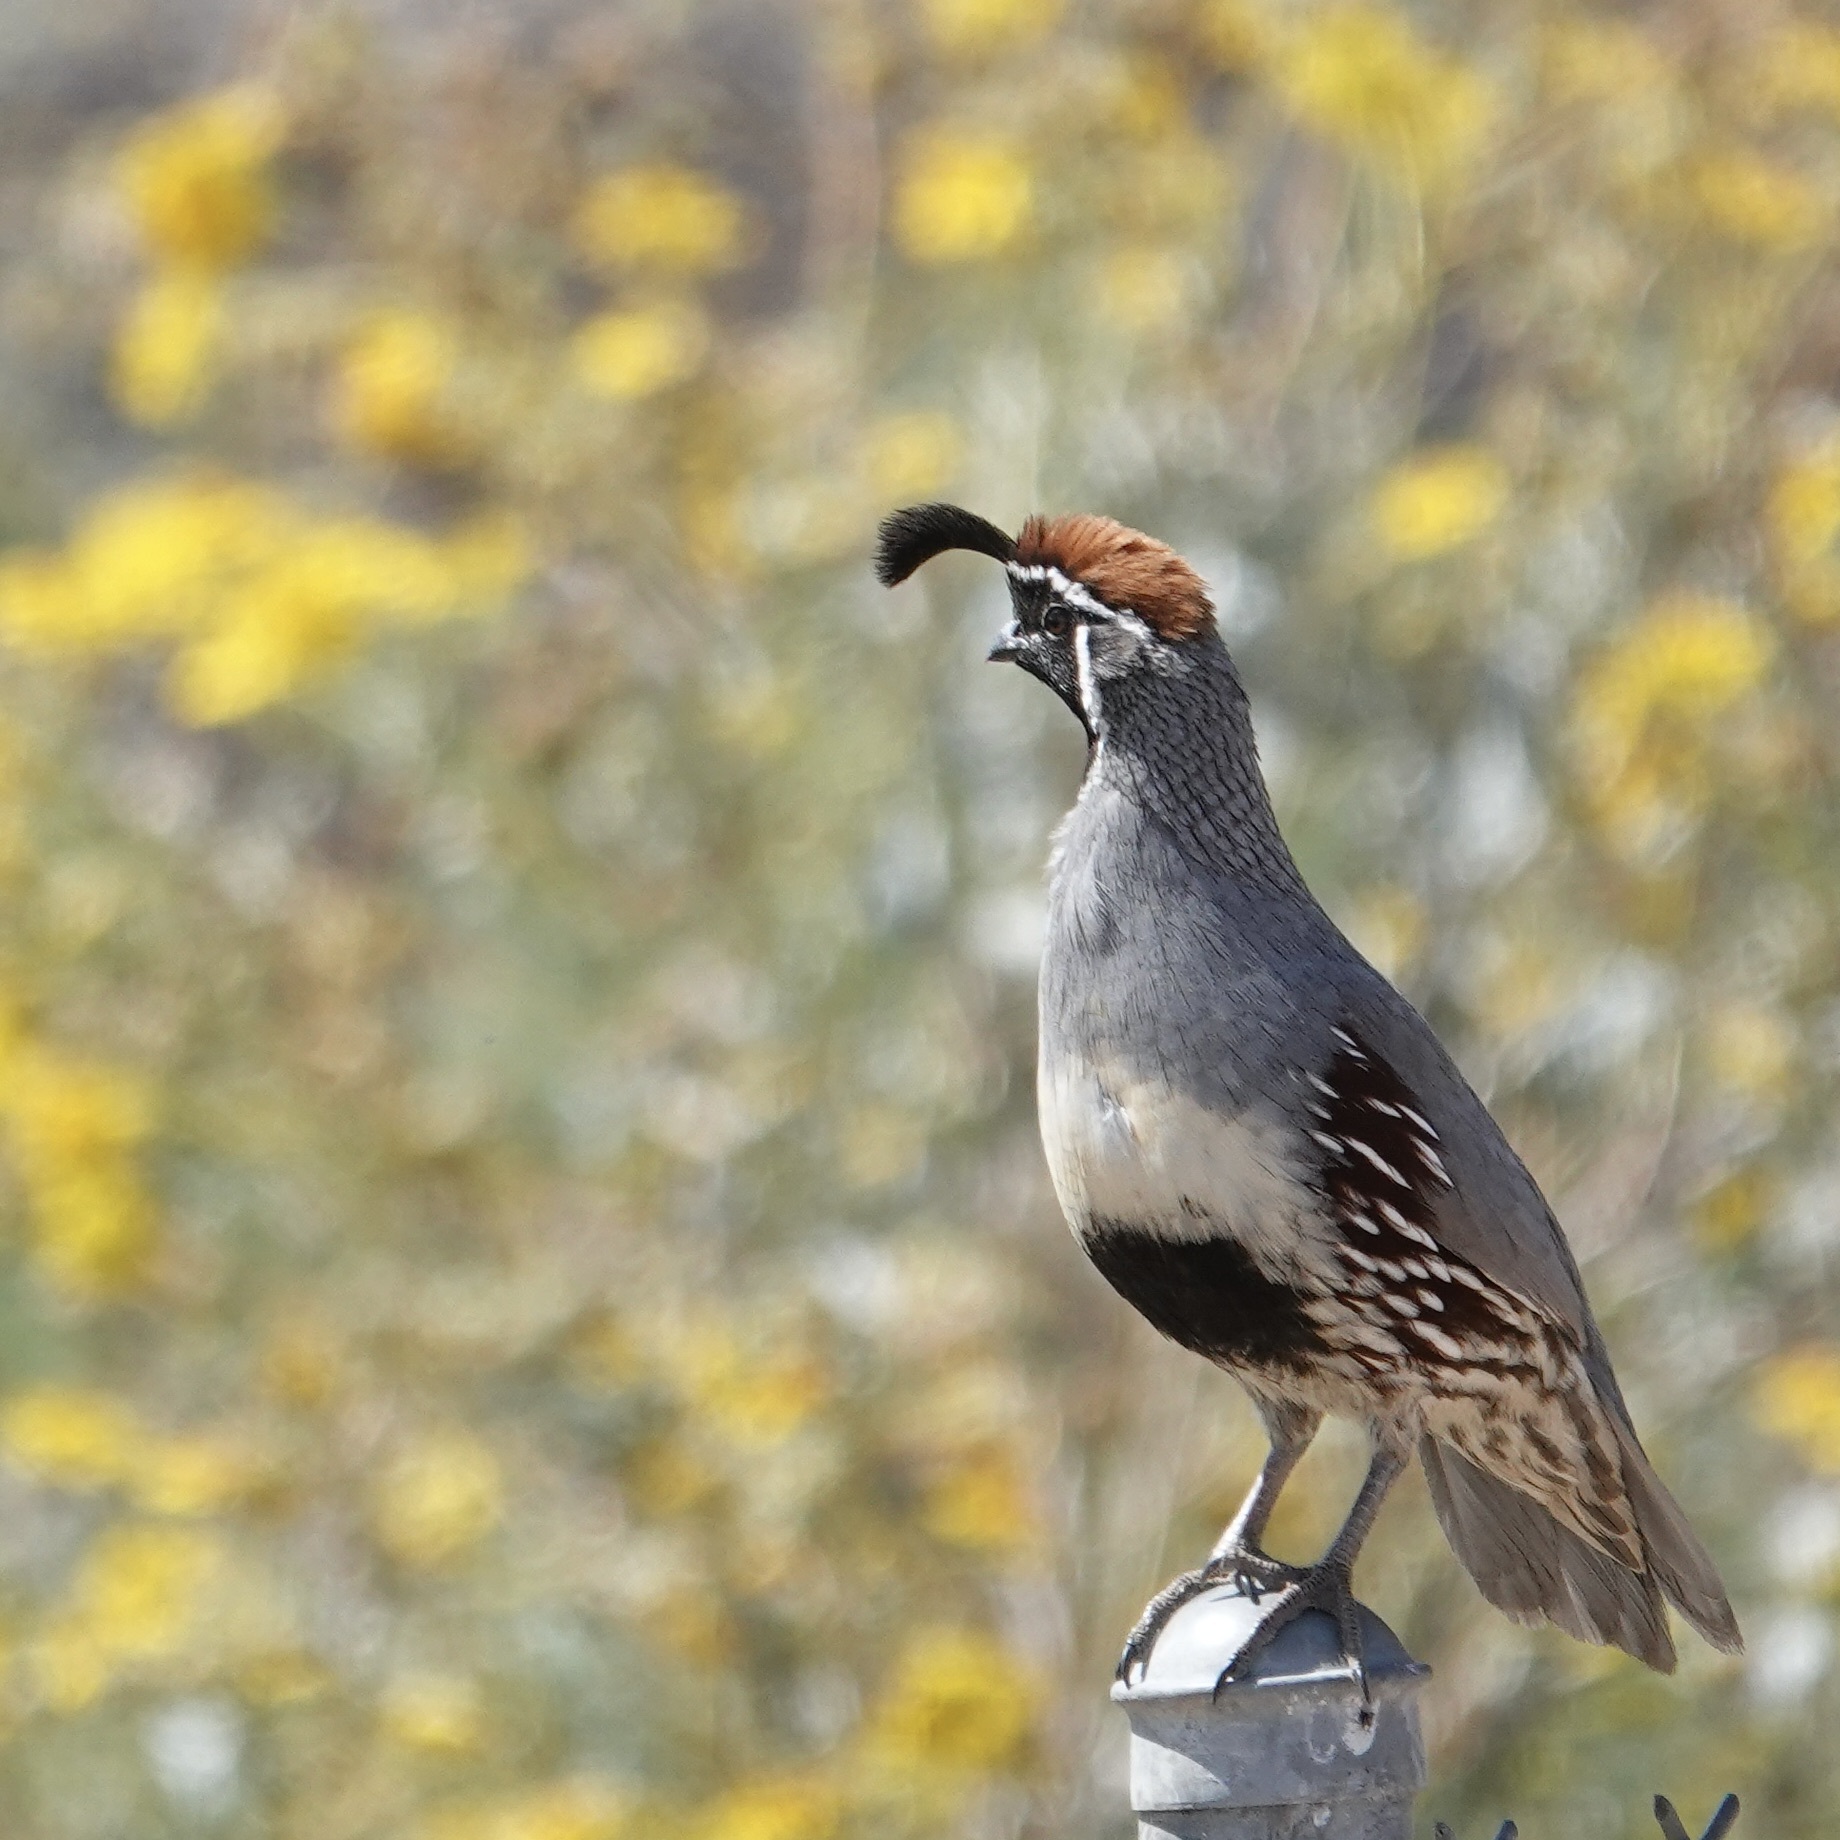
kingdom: Animalia
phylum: Chordata
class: Aves
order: Galliformes
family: Odontophoridae
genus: Callipepla
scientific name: Callipepla gambelii
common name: Gambel's quail
